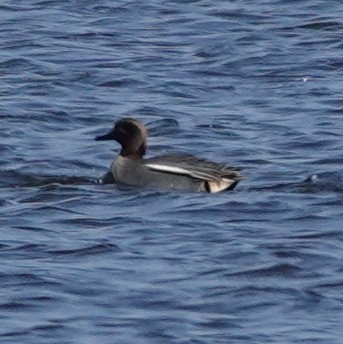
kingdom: Animalia
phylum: Chordata
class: Aves
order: Anseriformes
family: Anatidae
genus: Anas
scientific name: Anas crecca
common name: Eurasian teal
